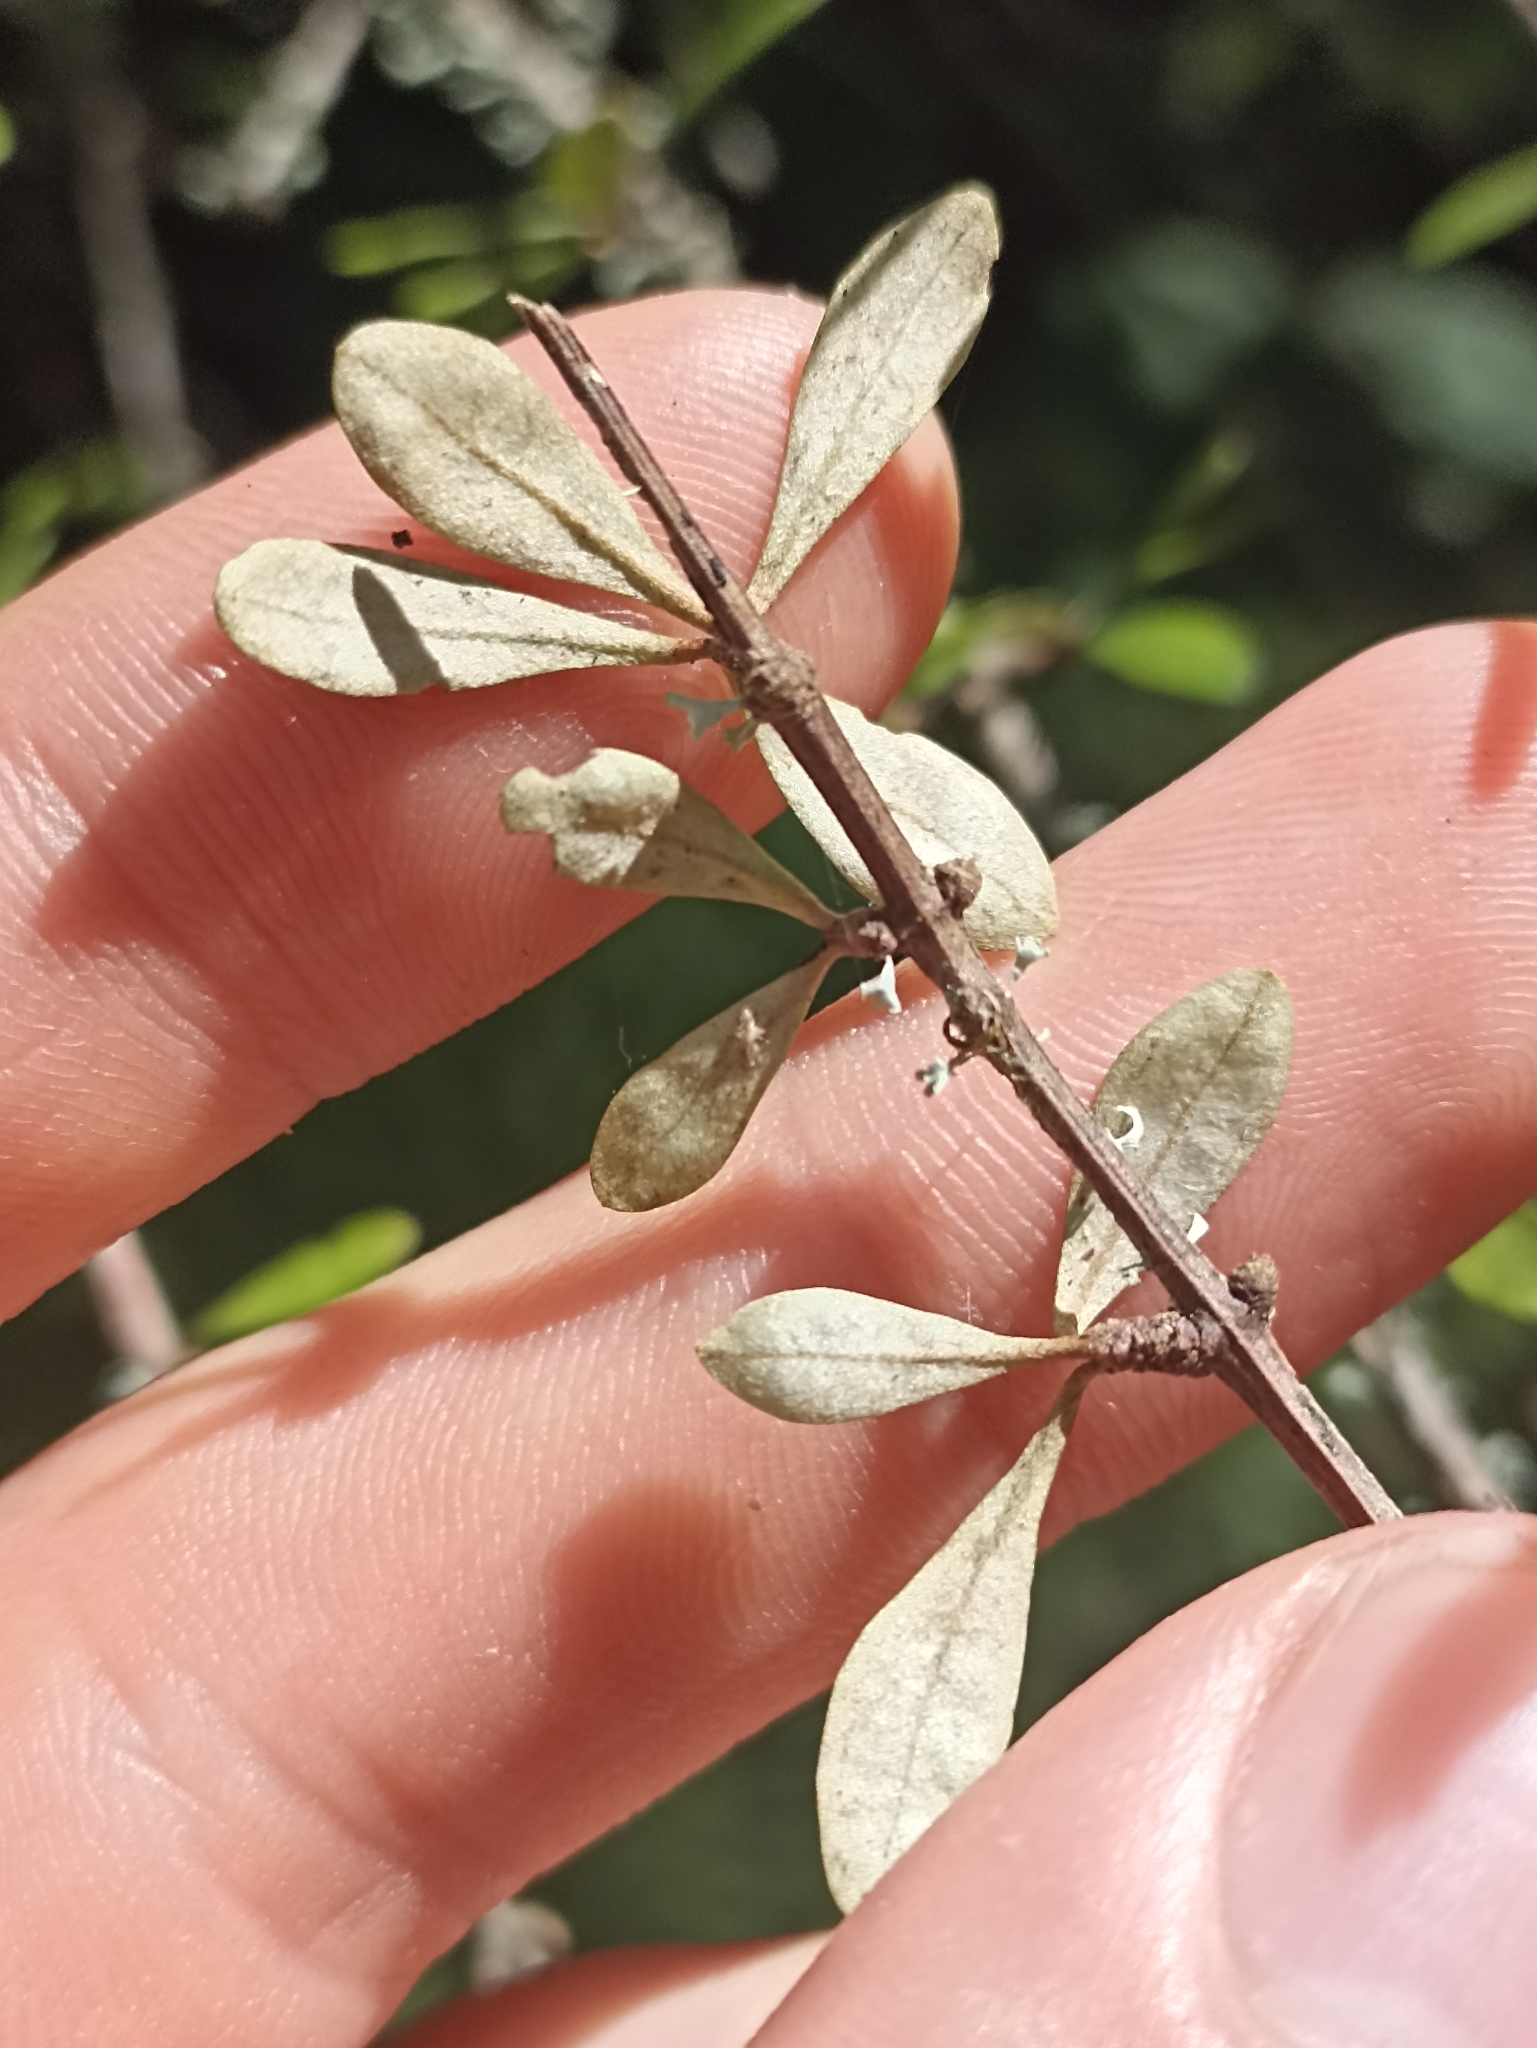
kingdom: Plantae
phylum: Tracheophyta
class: Magnoliopsida
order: Asterales
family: Asteraceae
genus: Olearia
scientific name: Olearia virgata
